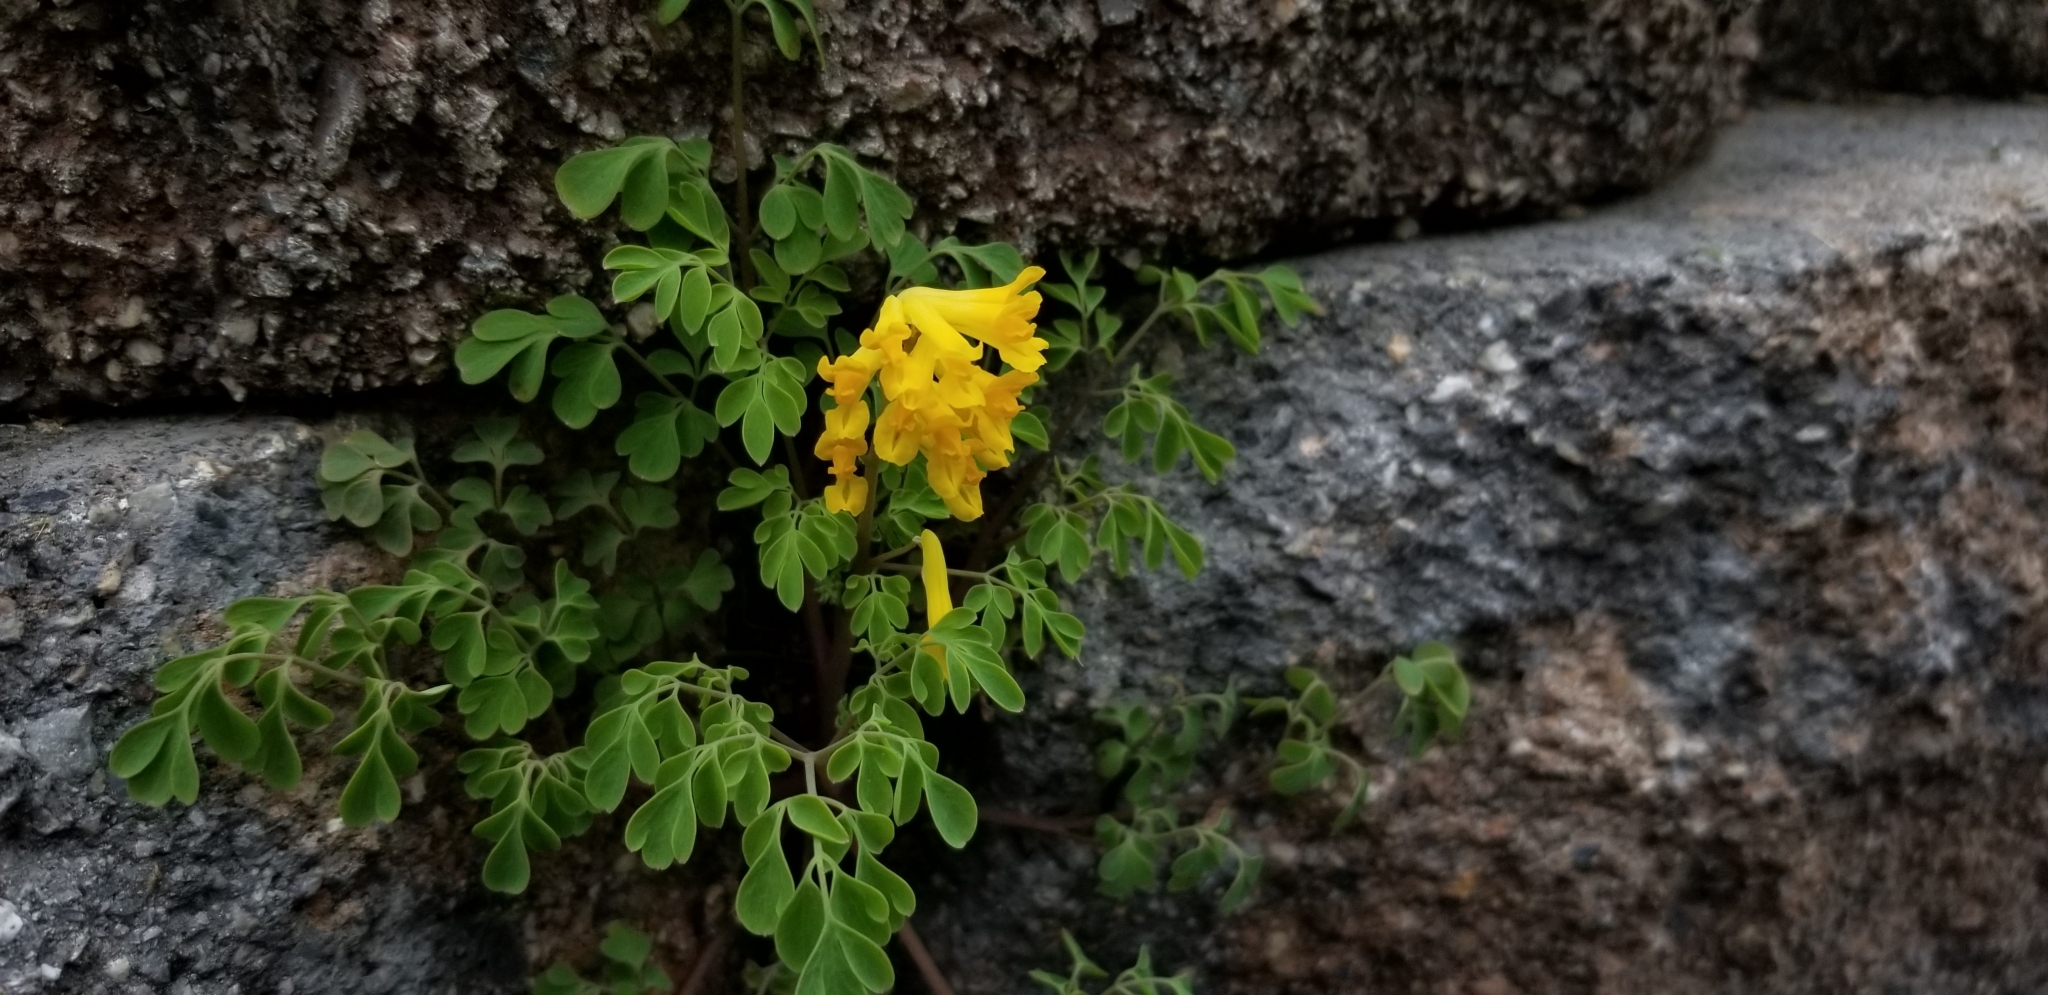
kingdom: Plantae
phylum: Tracheophyta
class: Magnoliopsida
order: Ranunculales
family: Papaveraceae
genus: Pseudofumaria
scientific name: Pseudofumaria lutea
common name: Yellow corydalis
